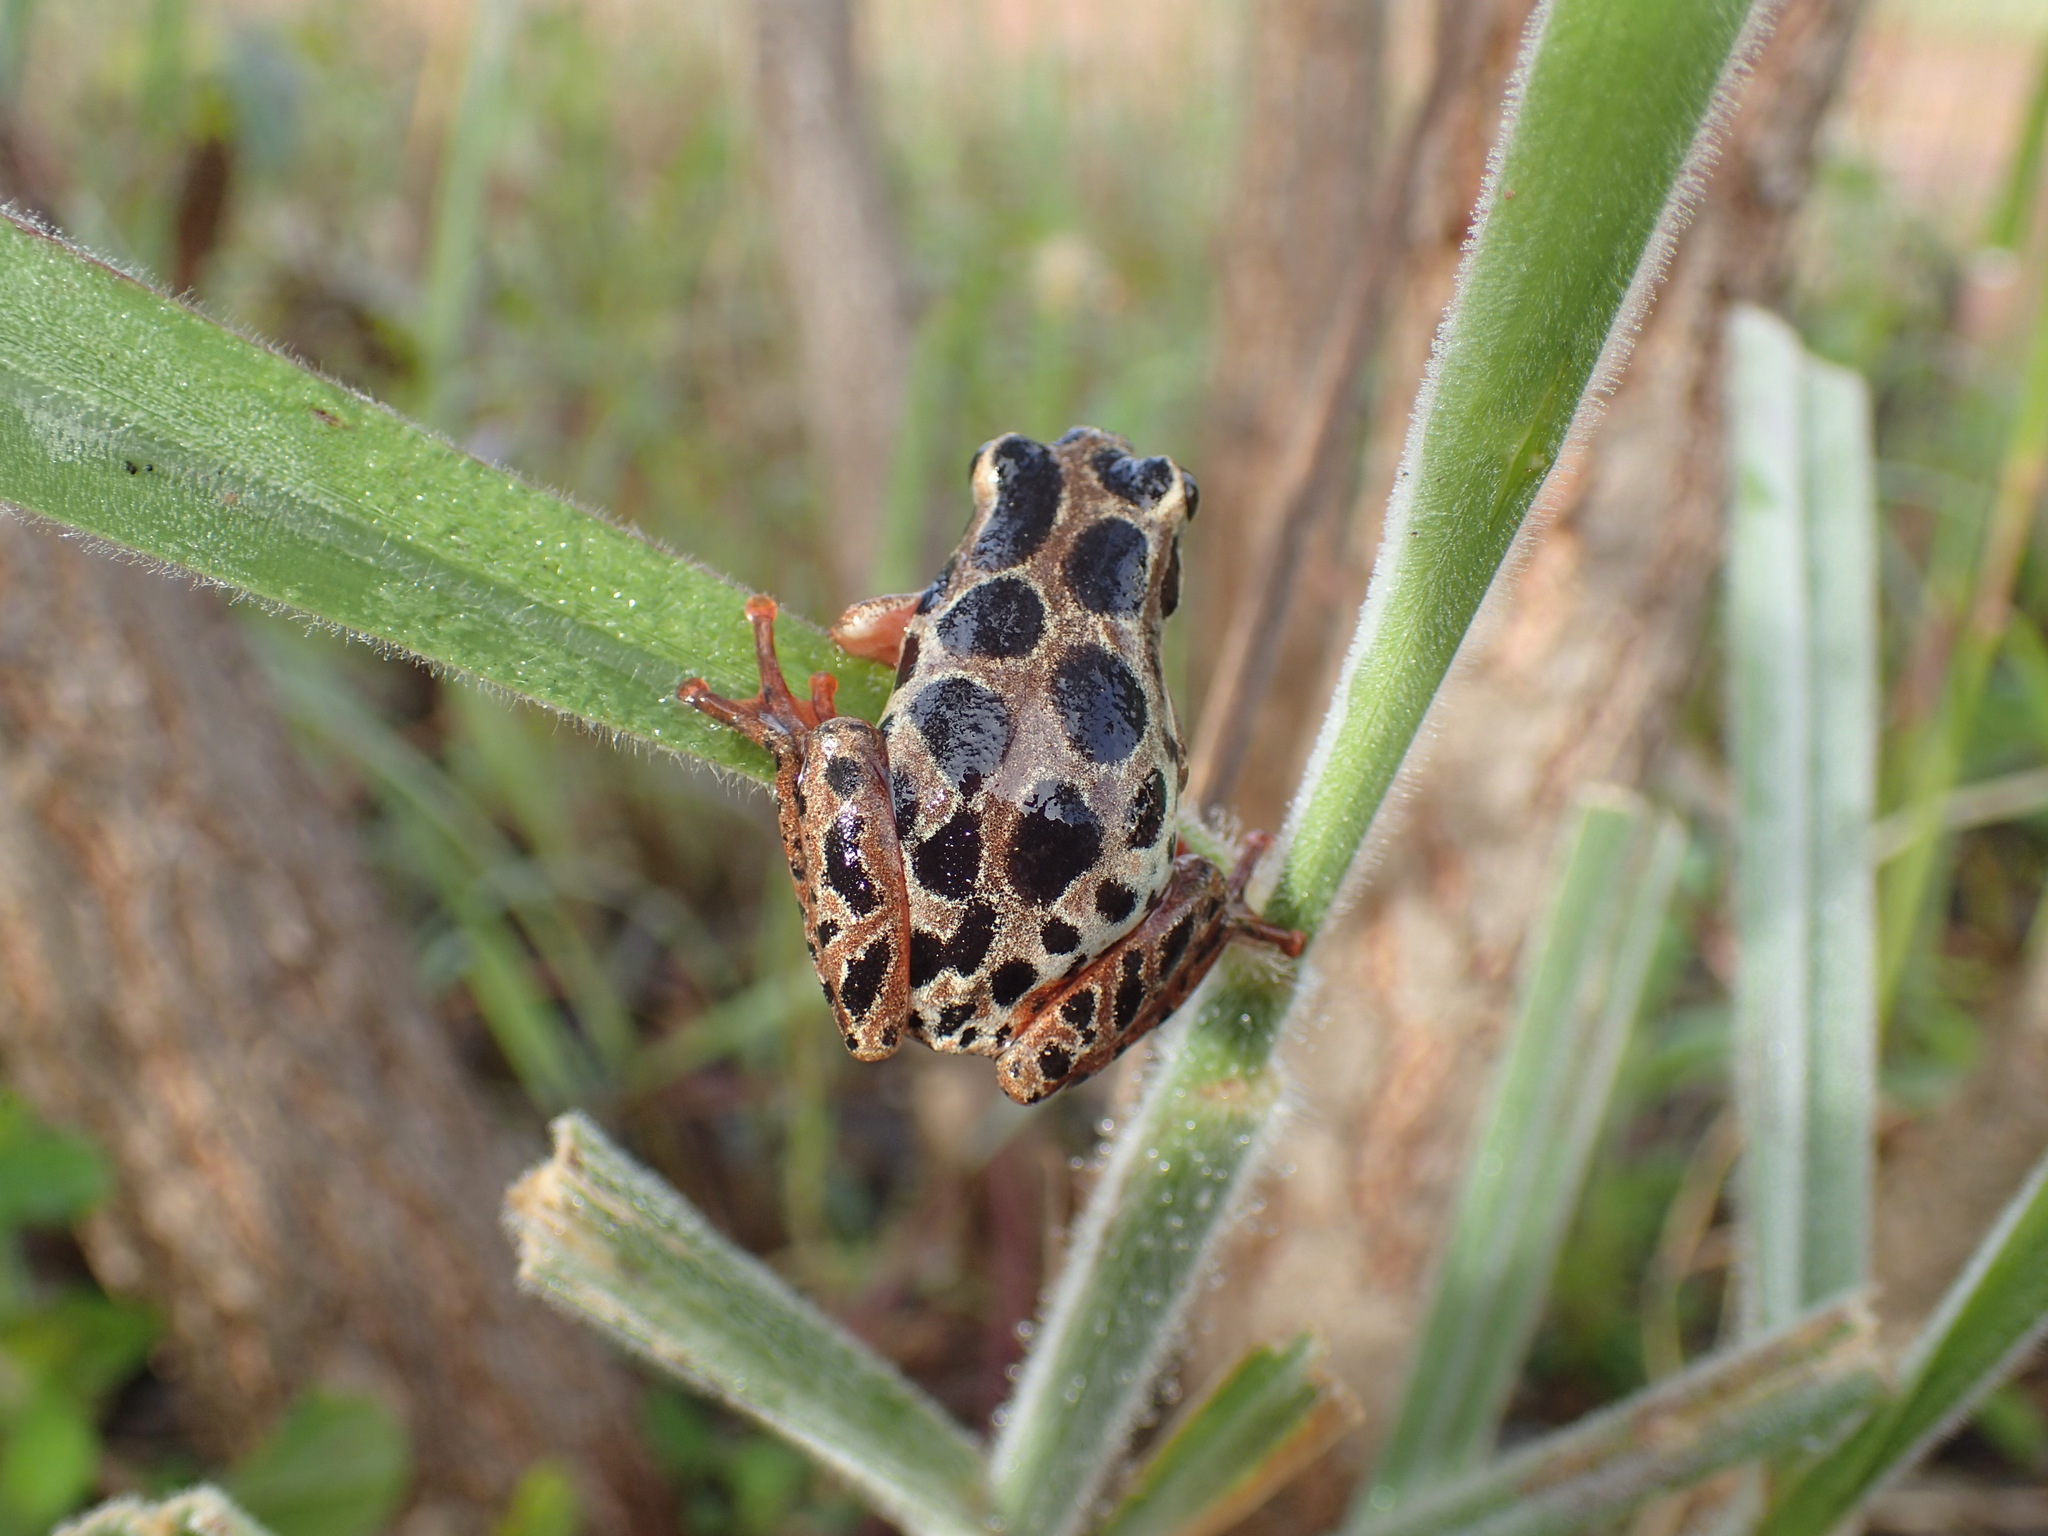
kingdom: Animalia
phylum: Chordata
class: Amphibia
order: Anura
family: Hyperoliidae
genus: Hyperolius
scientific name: Hyperolius parallelus
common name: Angolan reed frog
